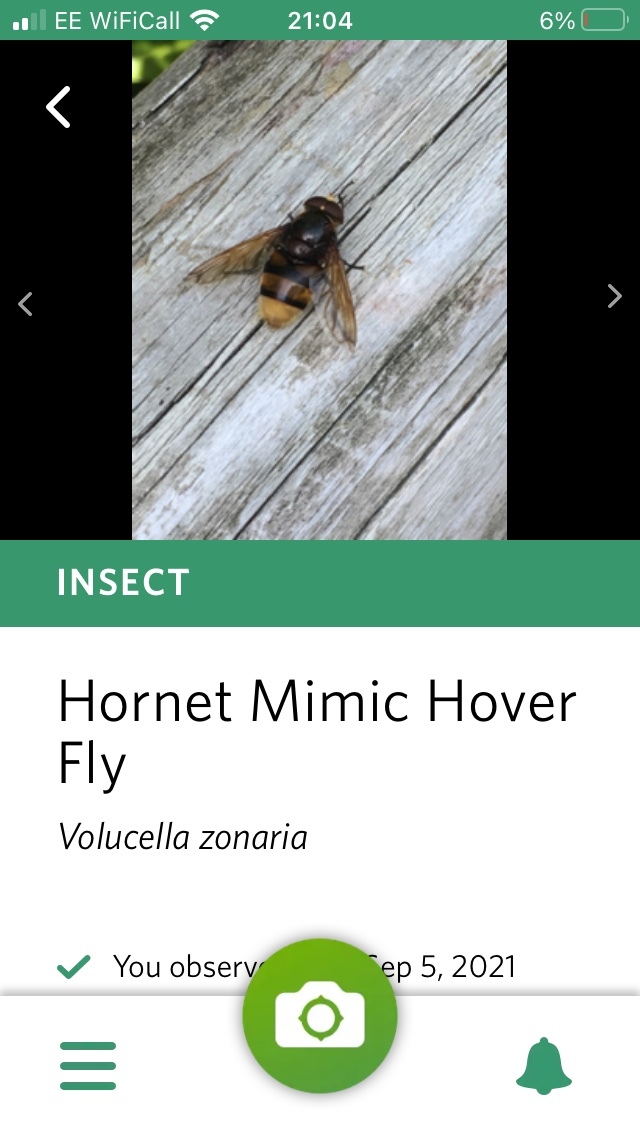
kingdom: Animalia
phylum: Arthropoda
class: Insecta
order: Diptera
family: Syrphidae
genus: Volucella
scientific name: Volucella zonaria
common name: Hornet hoverfly
